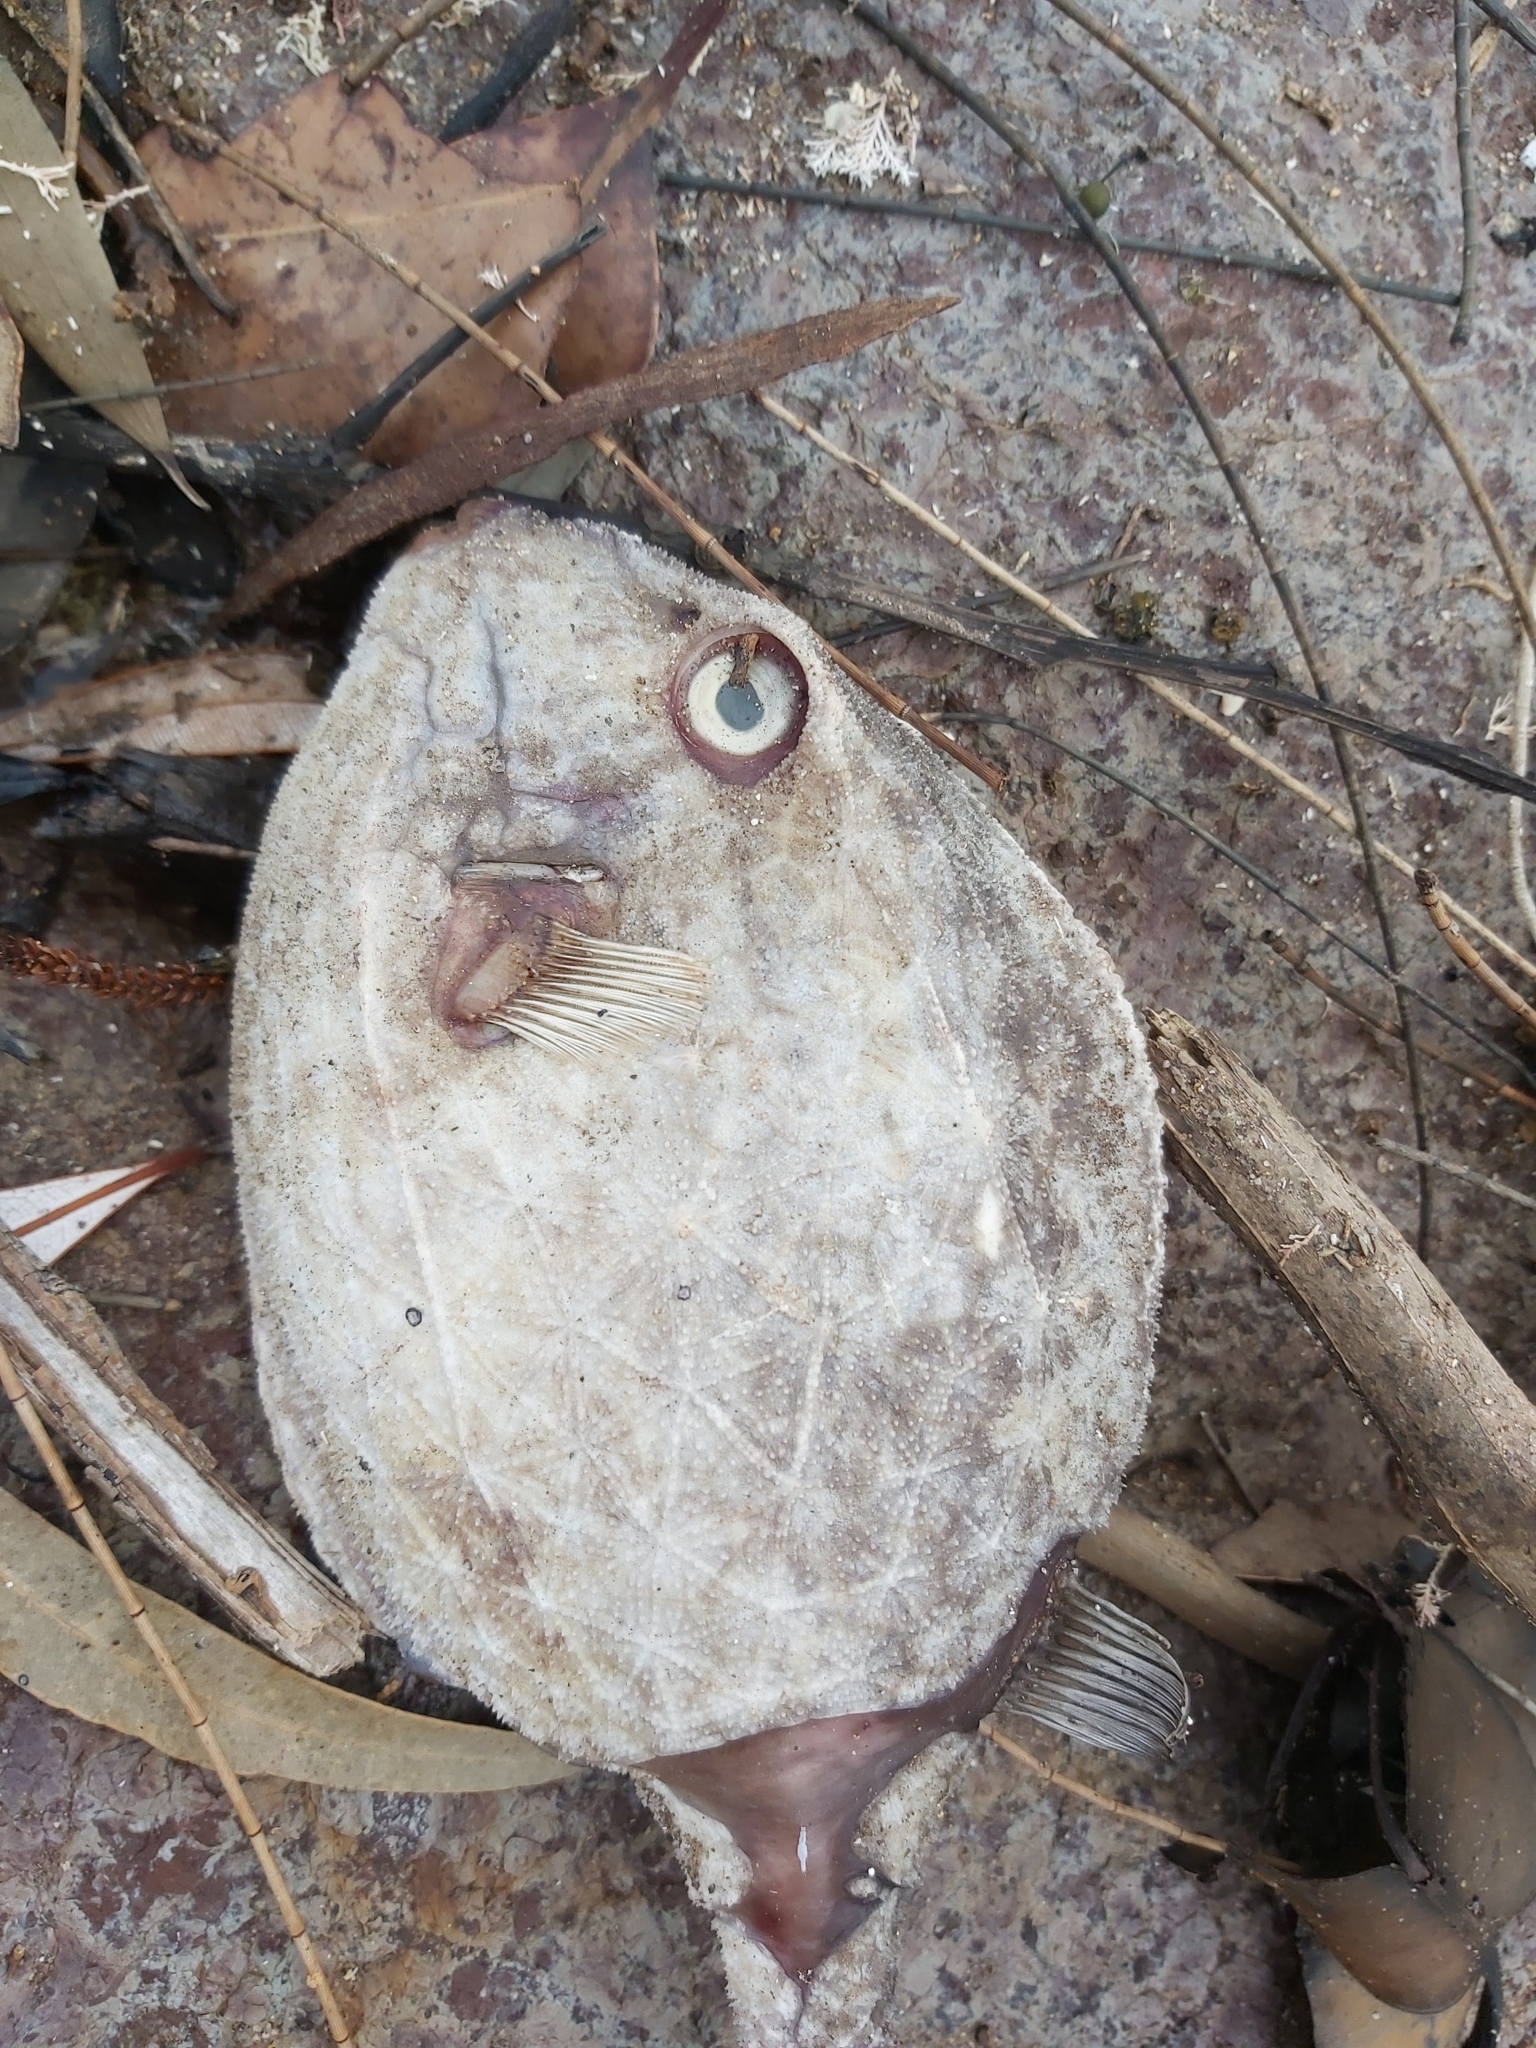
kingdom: Animalia
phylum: Chordata
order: Tetraodontiformes
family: Aracanidae
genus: Anoplocapros
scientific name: Anoplocapros inermis
